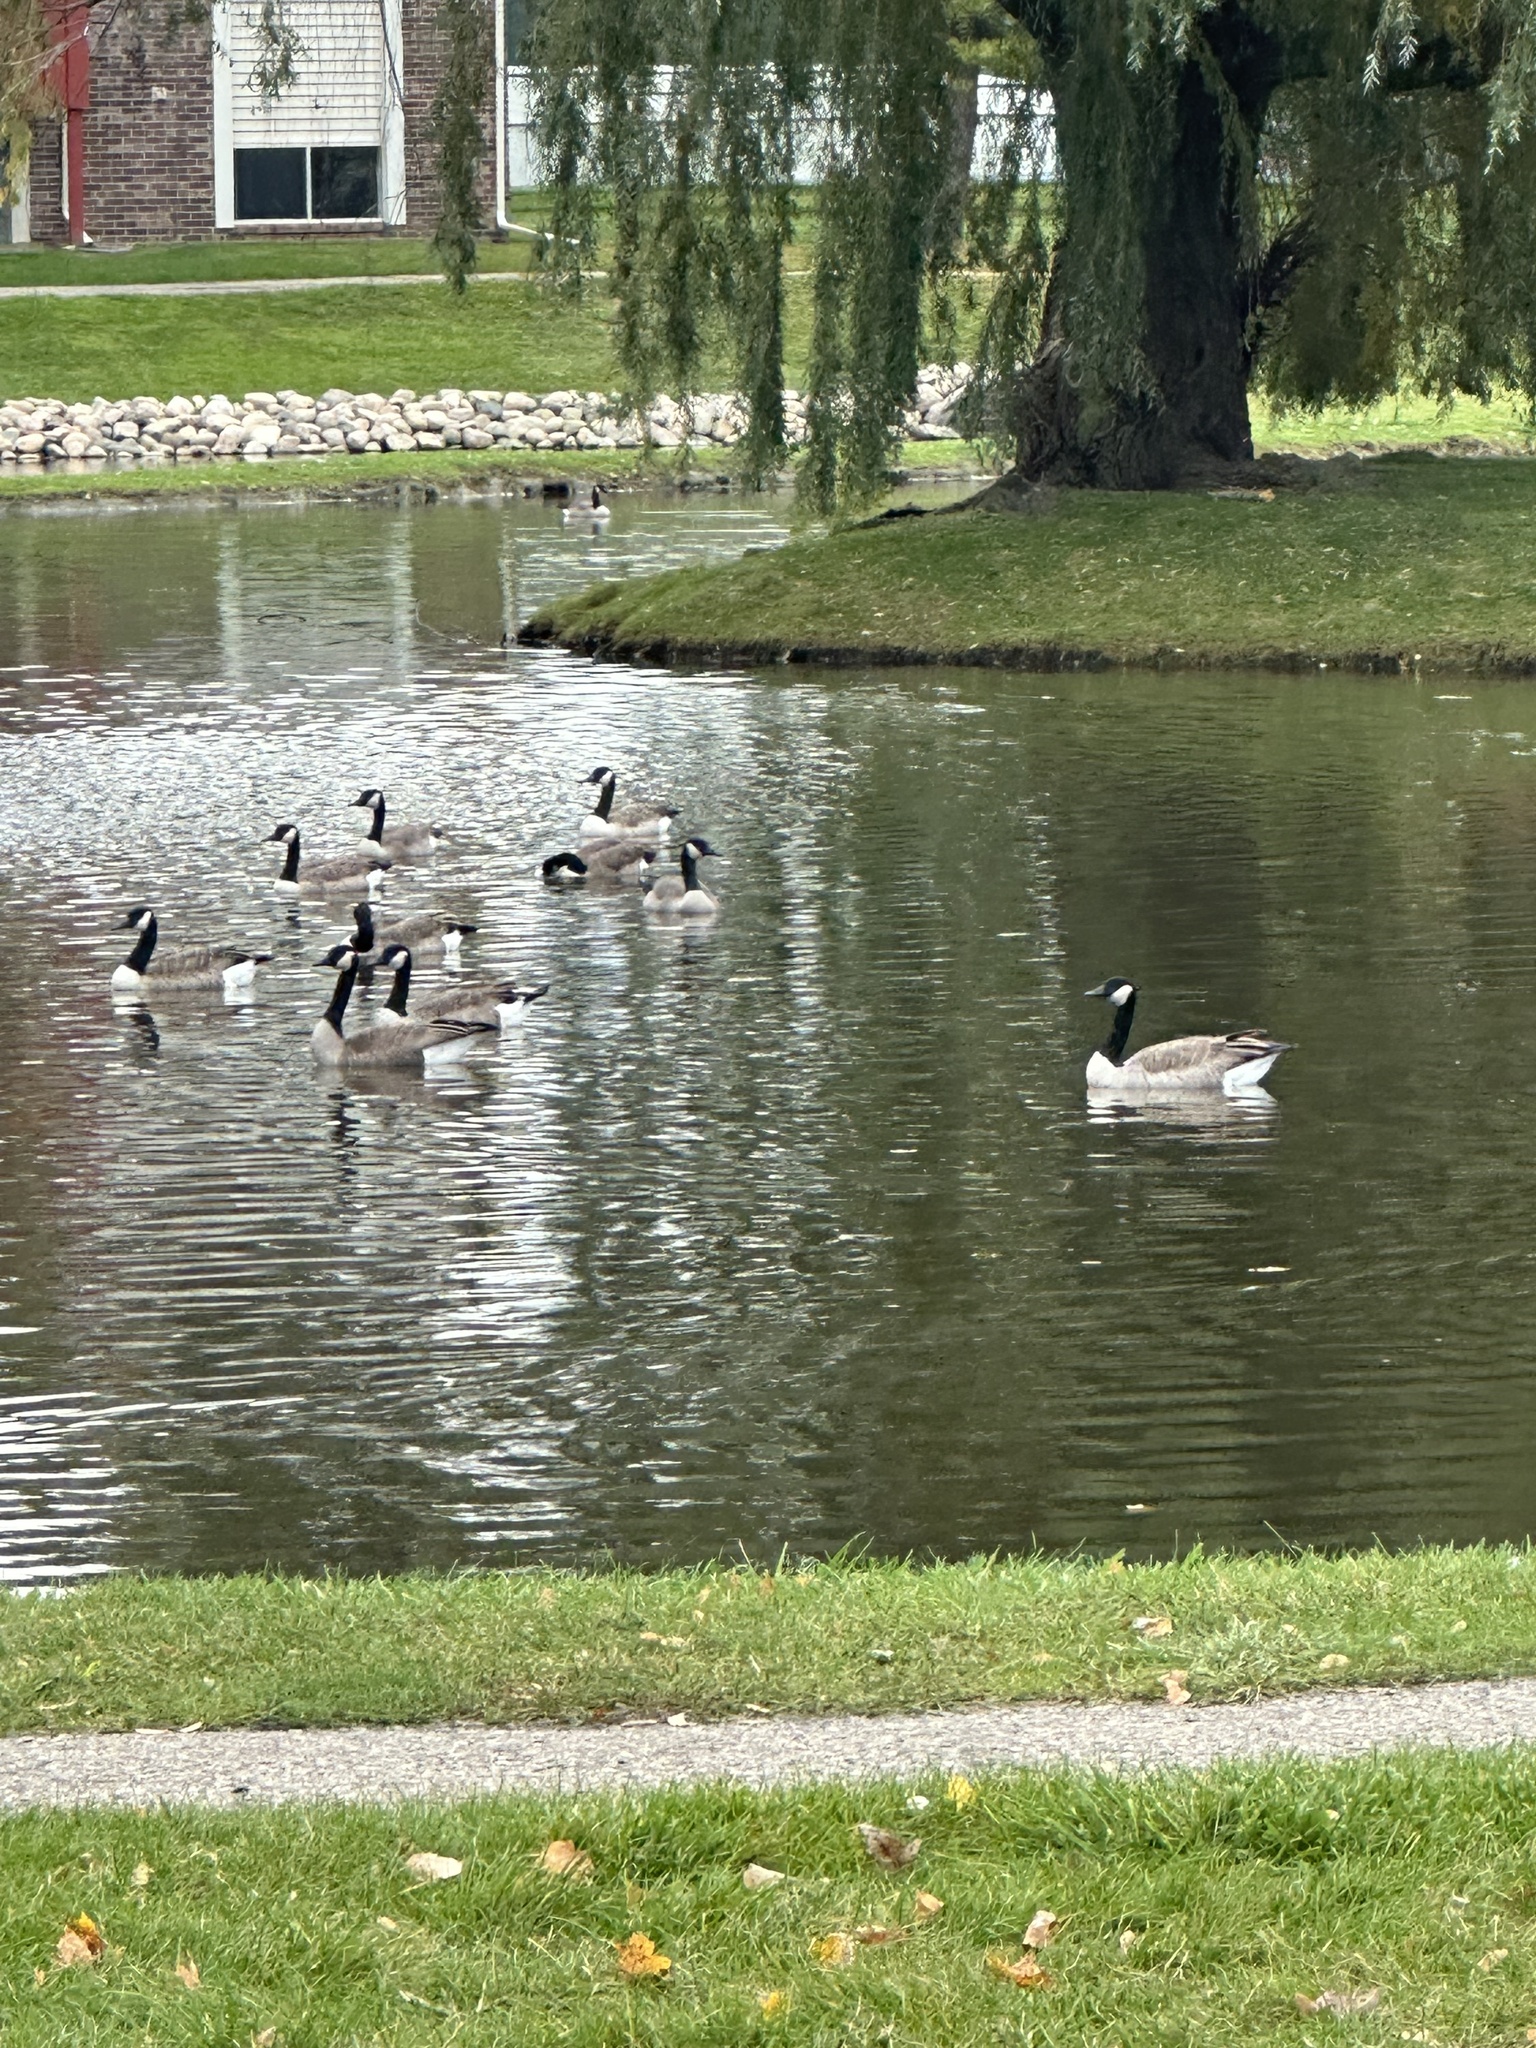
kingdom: Animalia
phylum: Chordata
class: Aves
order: Anseriformes
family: Anatidae
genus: Branta
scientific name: Branta canadensis
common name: Canada goose
